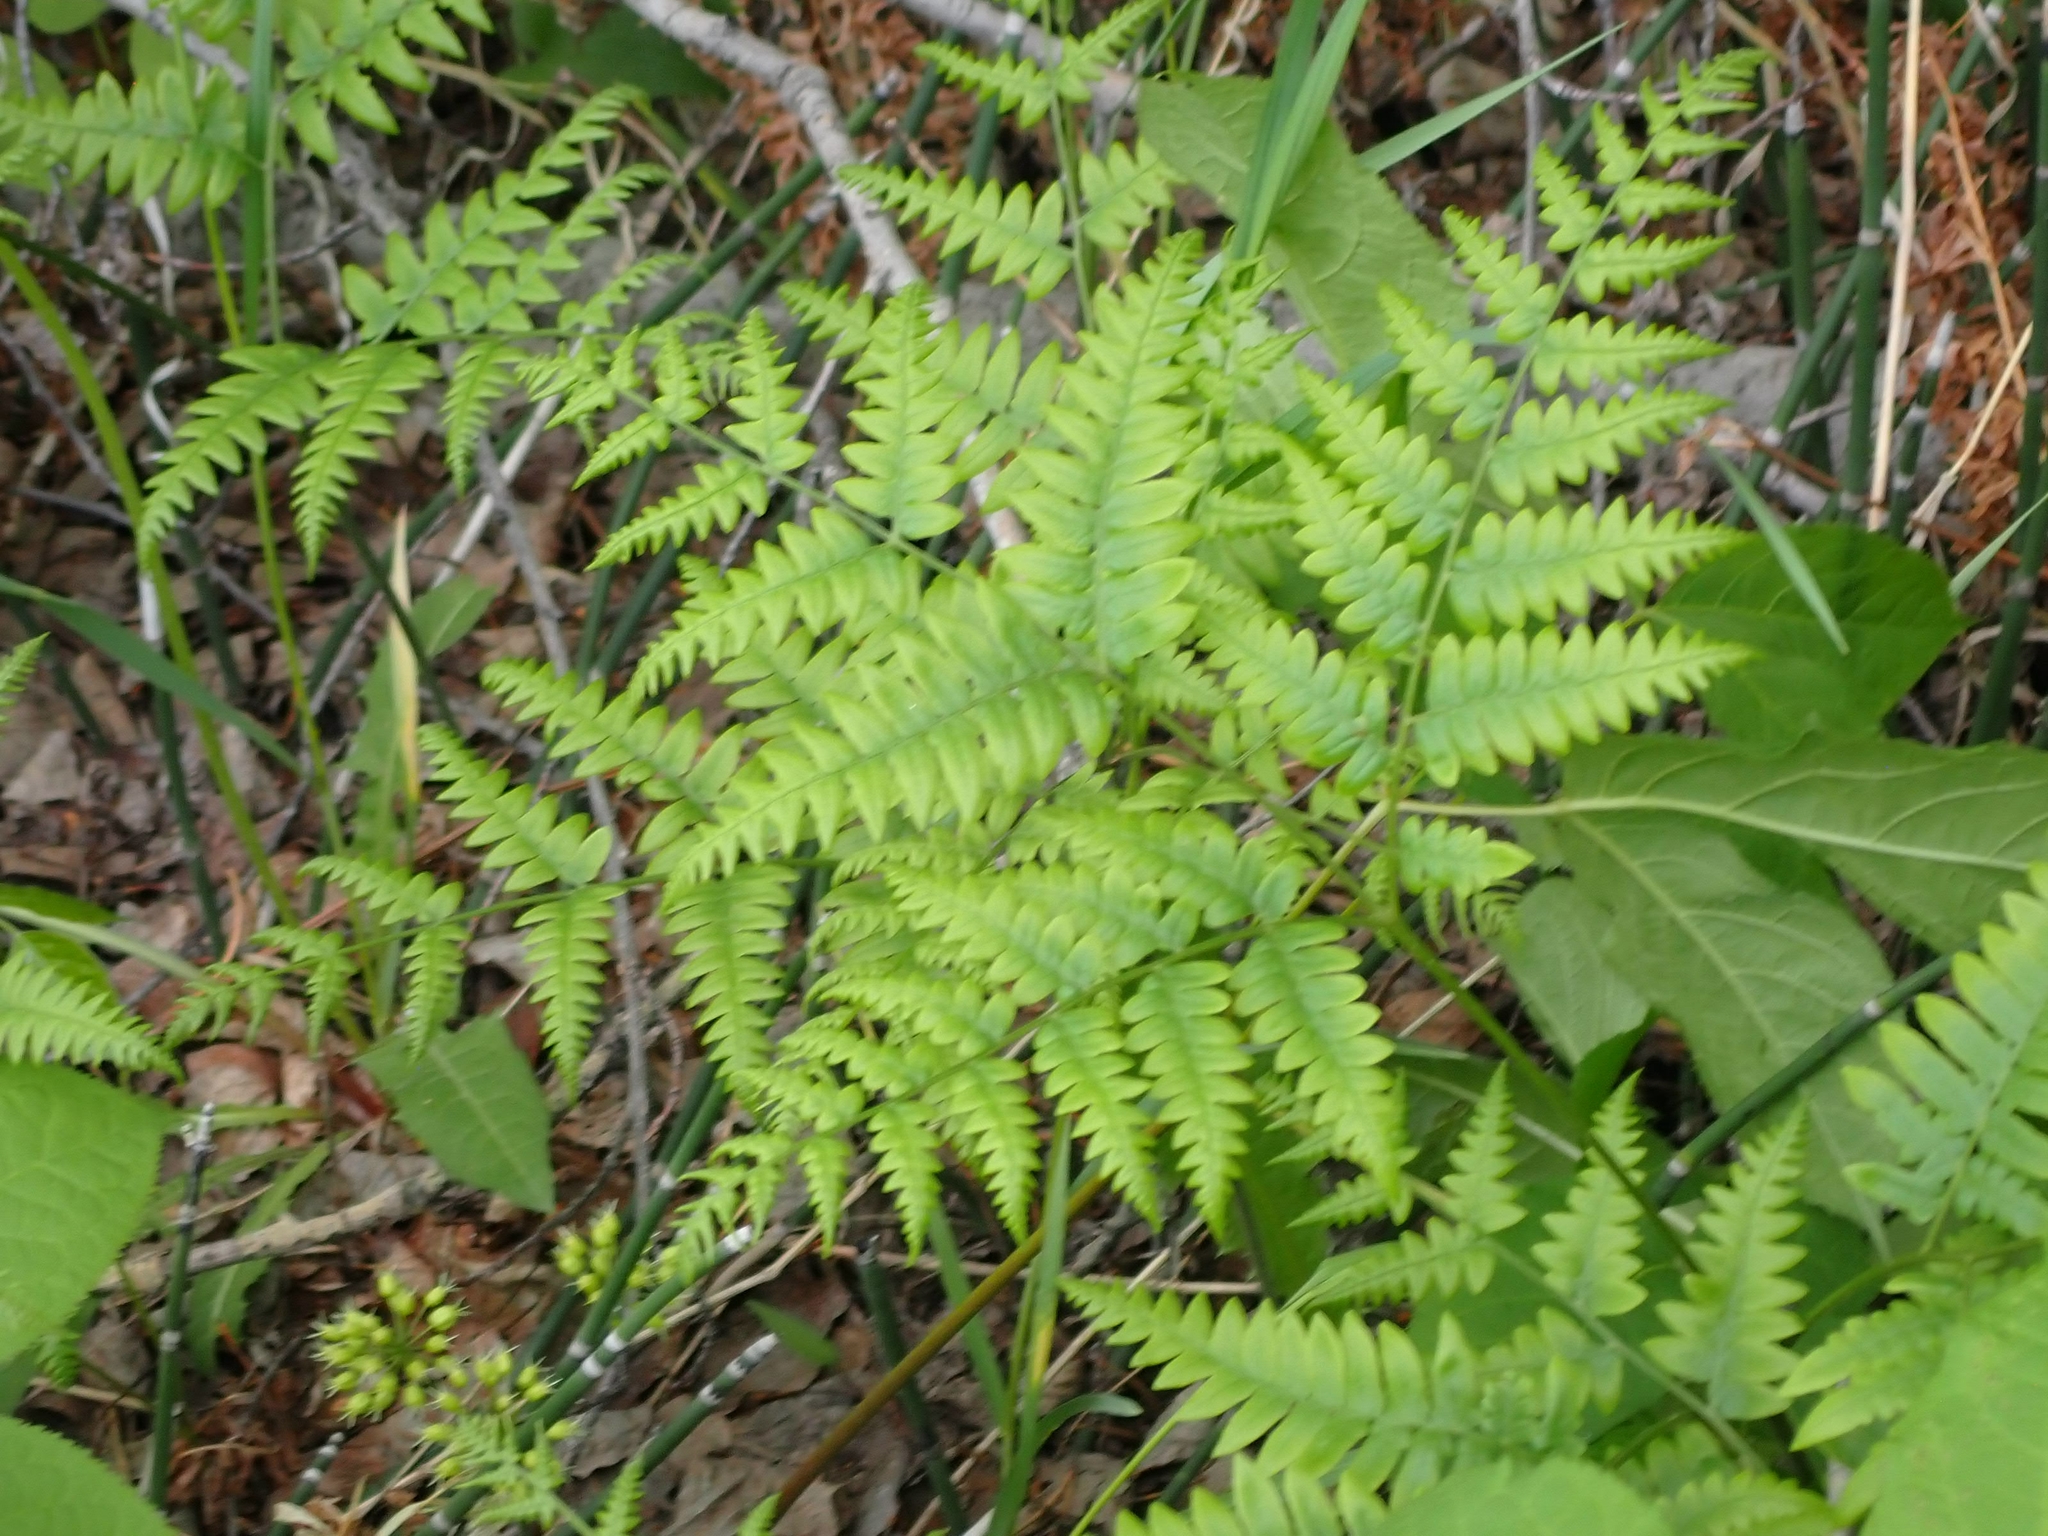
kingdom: Plantae
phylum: Tracheophyta
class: Polypodiopsida
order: Polypodiales
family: Dennstaedtiaceae
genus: Pteridium
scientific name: Pteridium aquilinum
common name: Bracken
